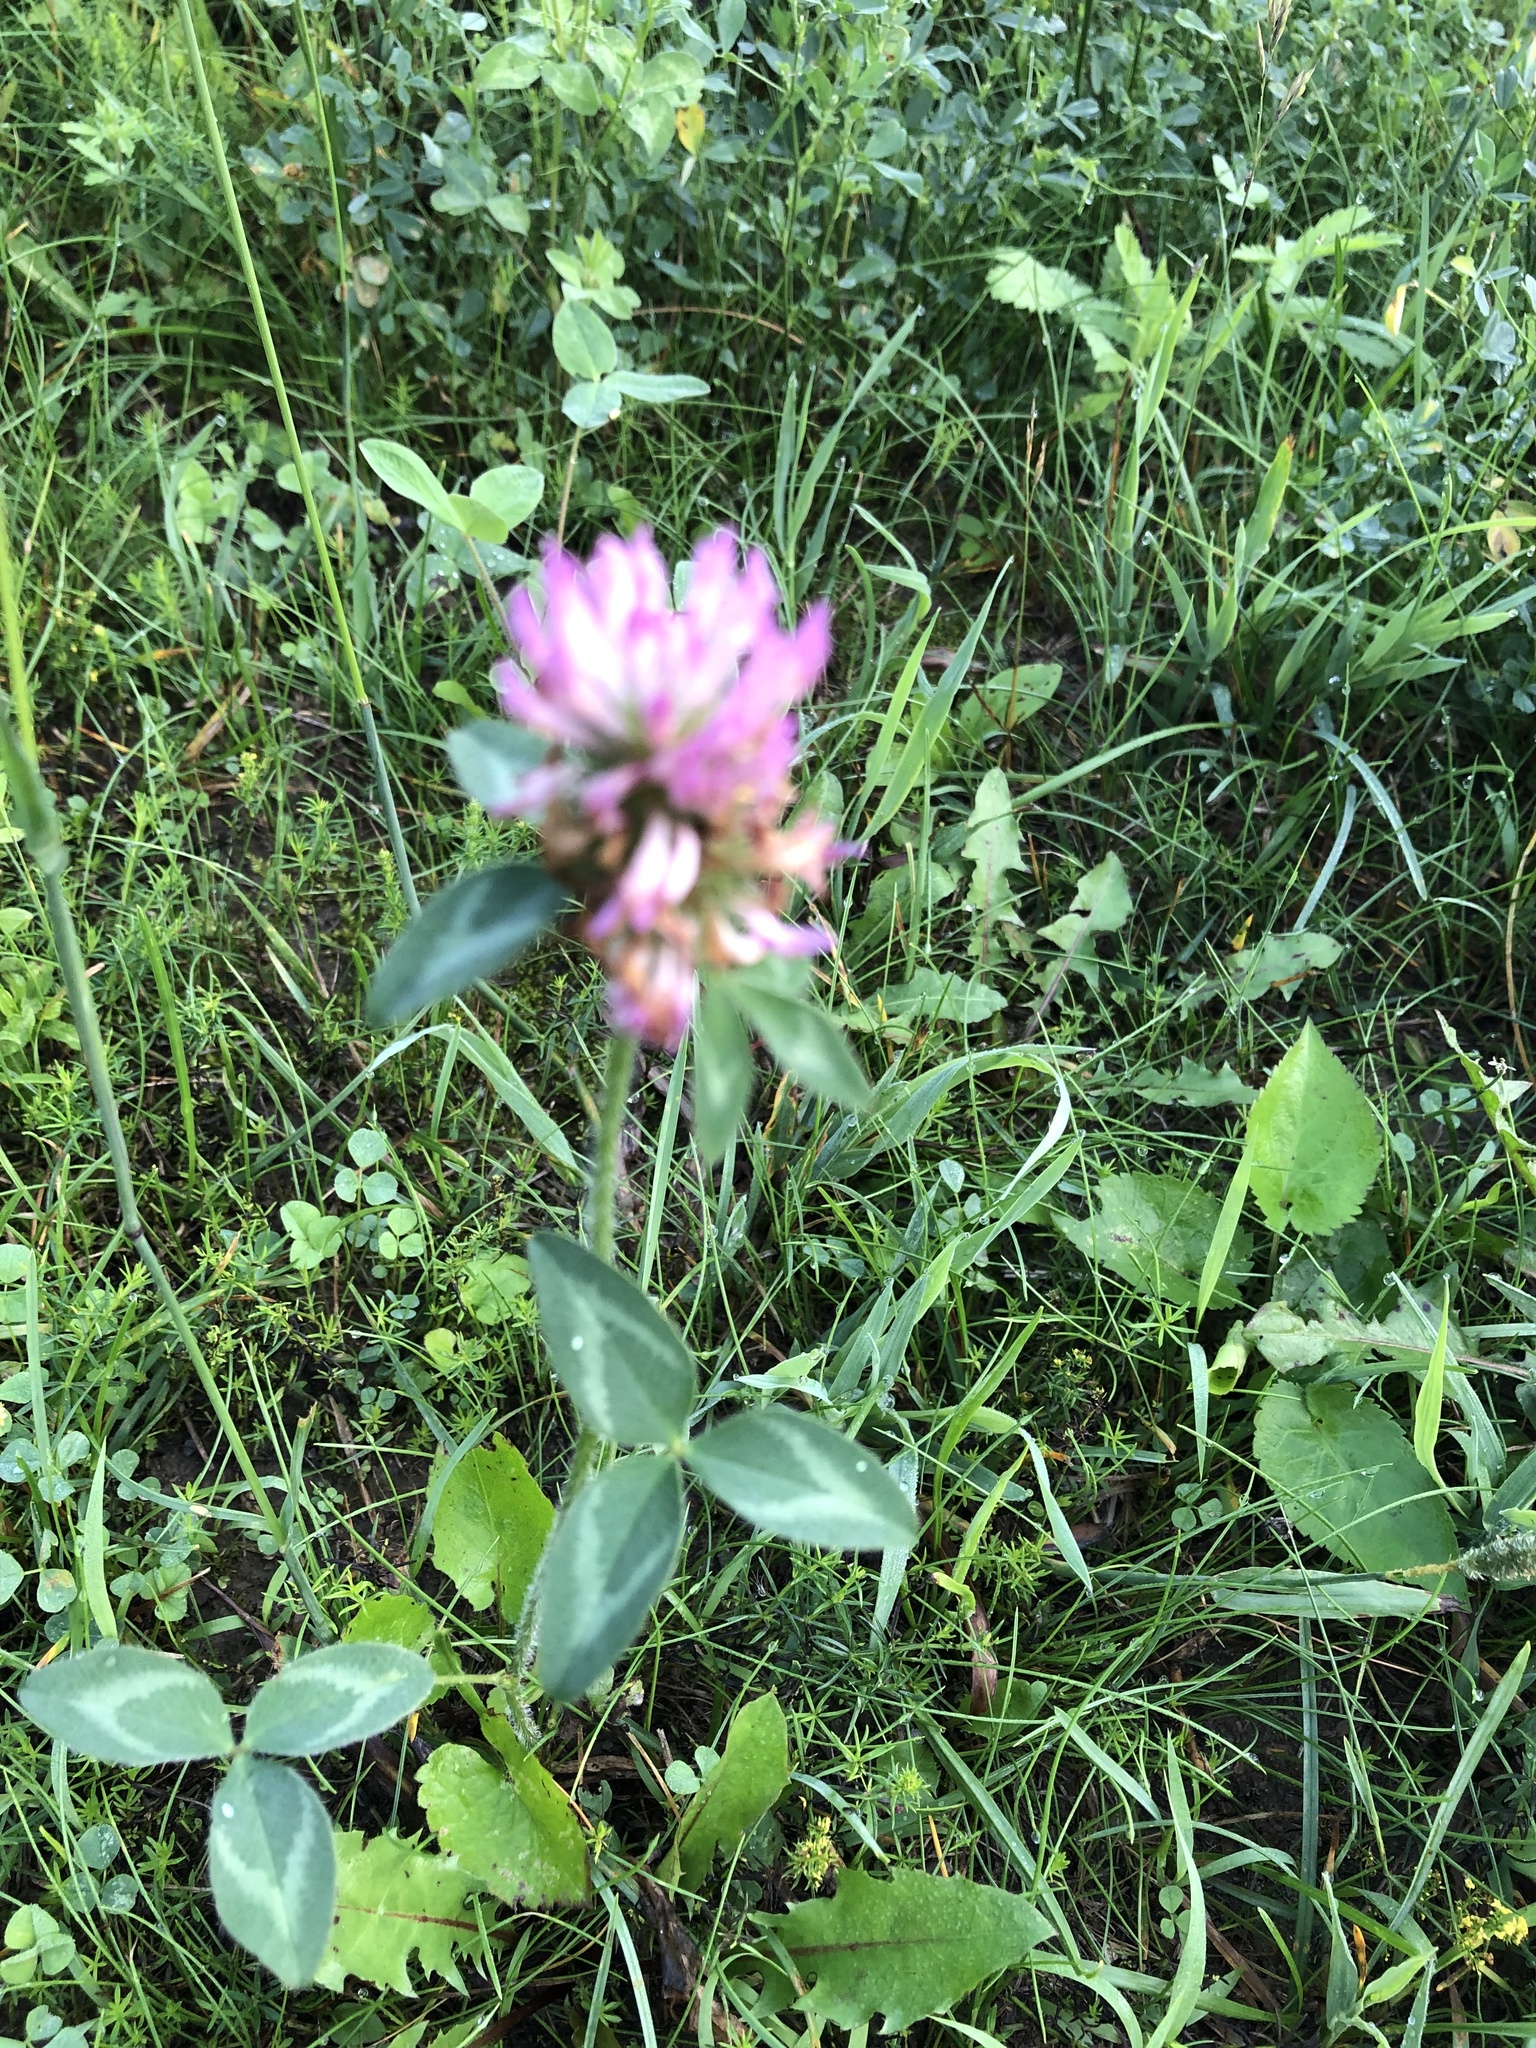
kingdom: Plantae
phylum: Tracheophyta
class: Magnoliopsida
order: Fabales
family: Fabaceae
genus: Trifolium
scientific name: Trifolium pratense
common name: Red clover
